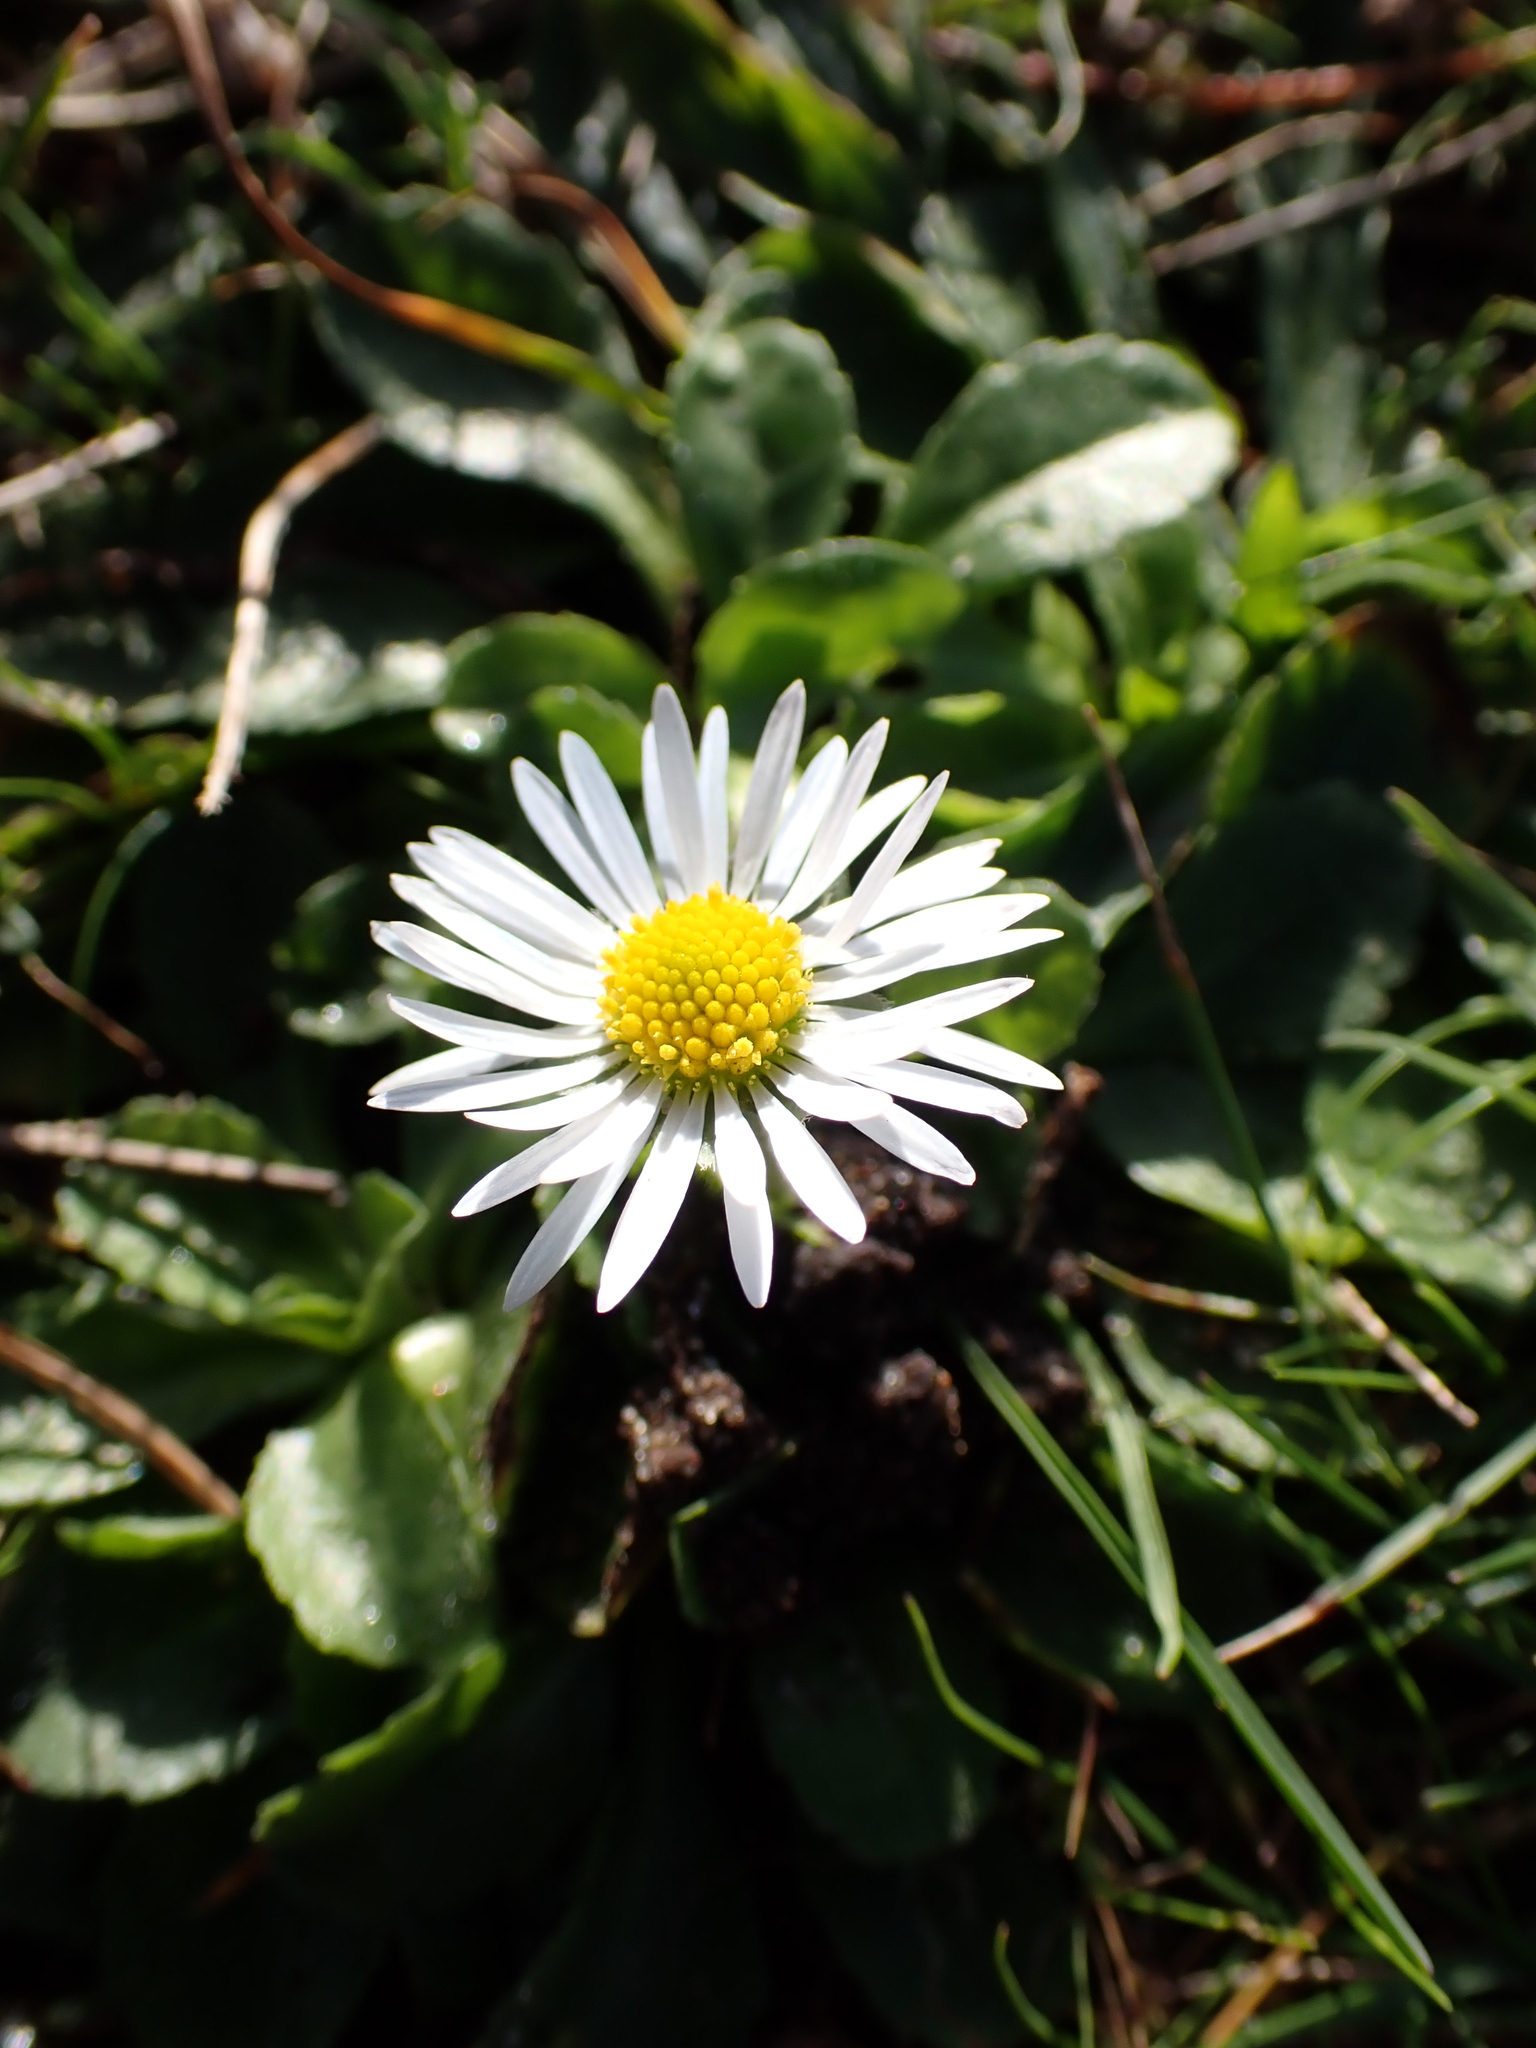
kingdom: Plantae
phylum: Tracheophyta
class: Magnoliopsida
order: Asterales
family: Asteraceae
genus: Bellis
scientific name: Bellis perennis
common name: Lawndaisy
